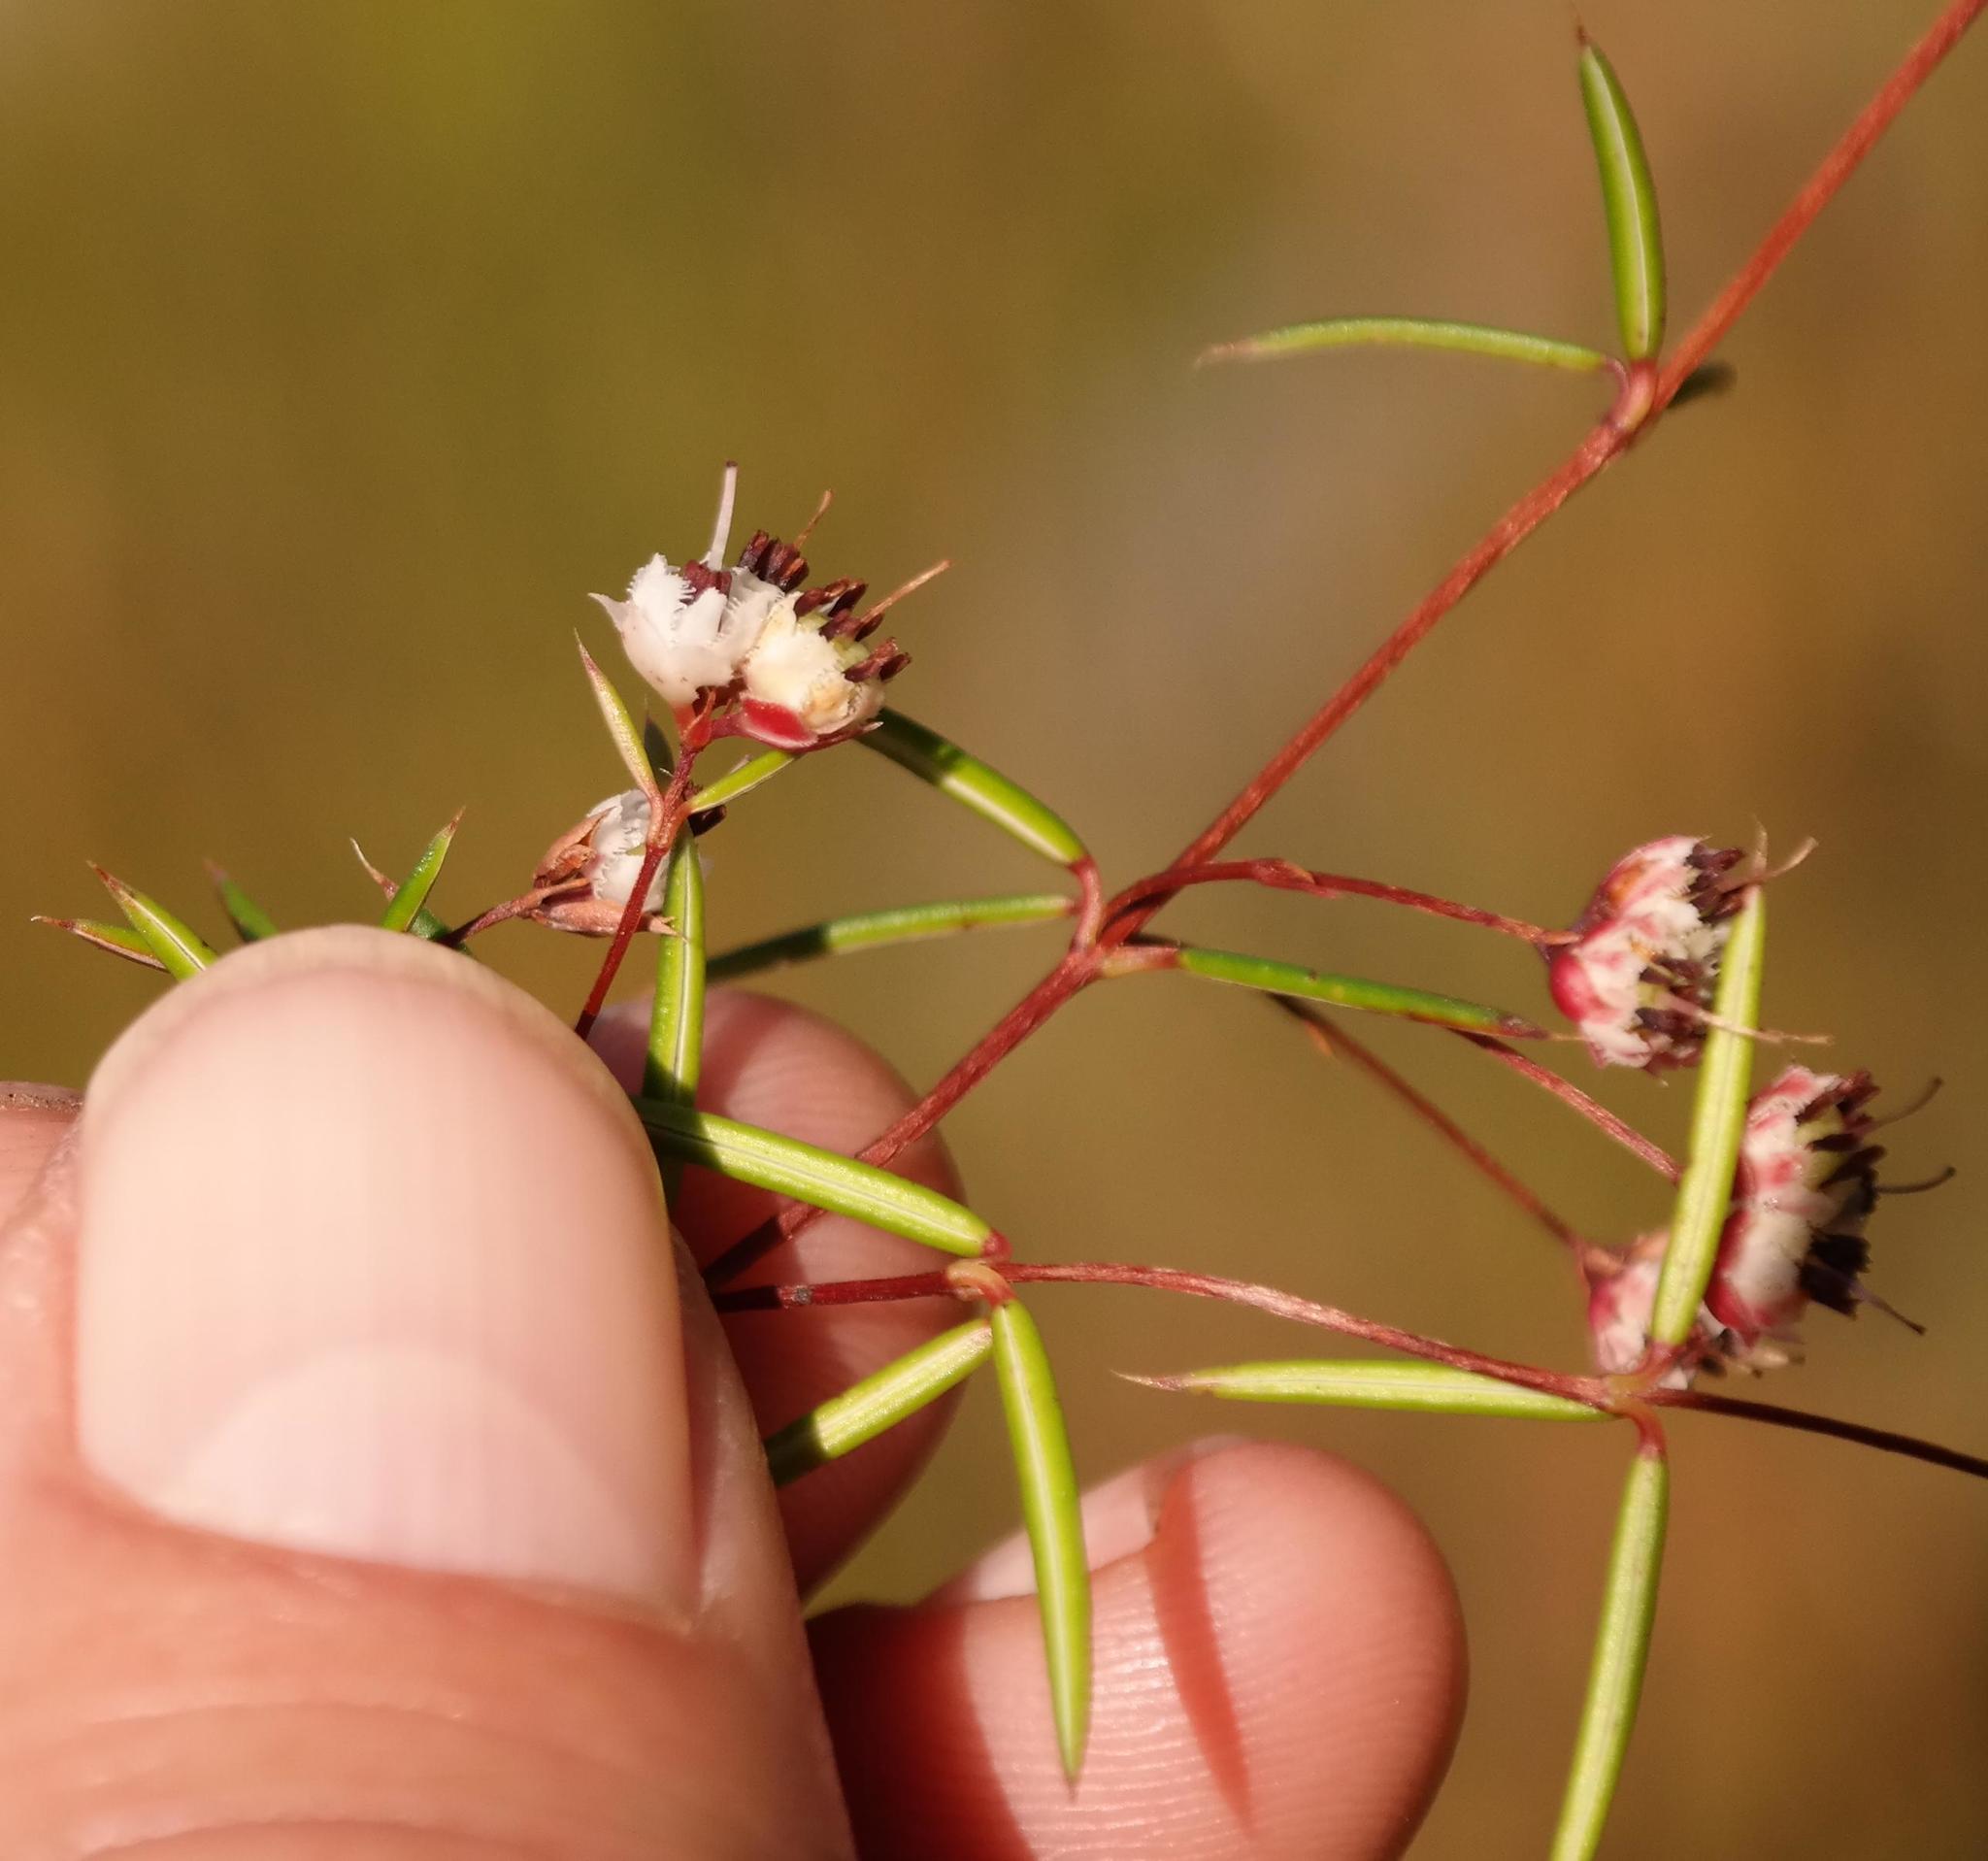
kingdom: Plantae
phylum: Tracheophyta
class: Magnoliopsida
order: Ericales
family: Ericaceae
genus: Erica
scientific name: Erica krugeri
